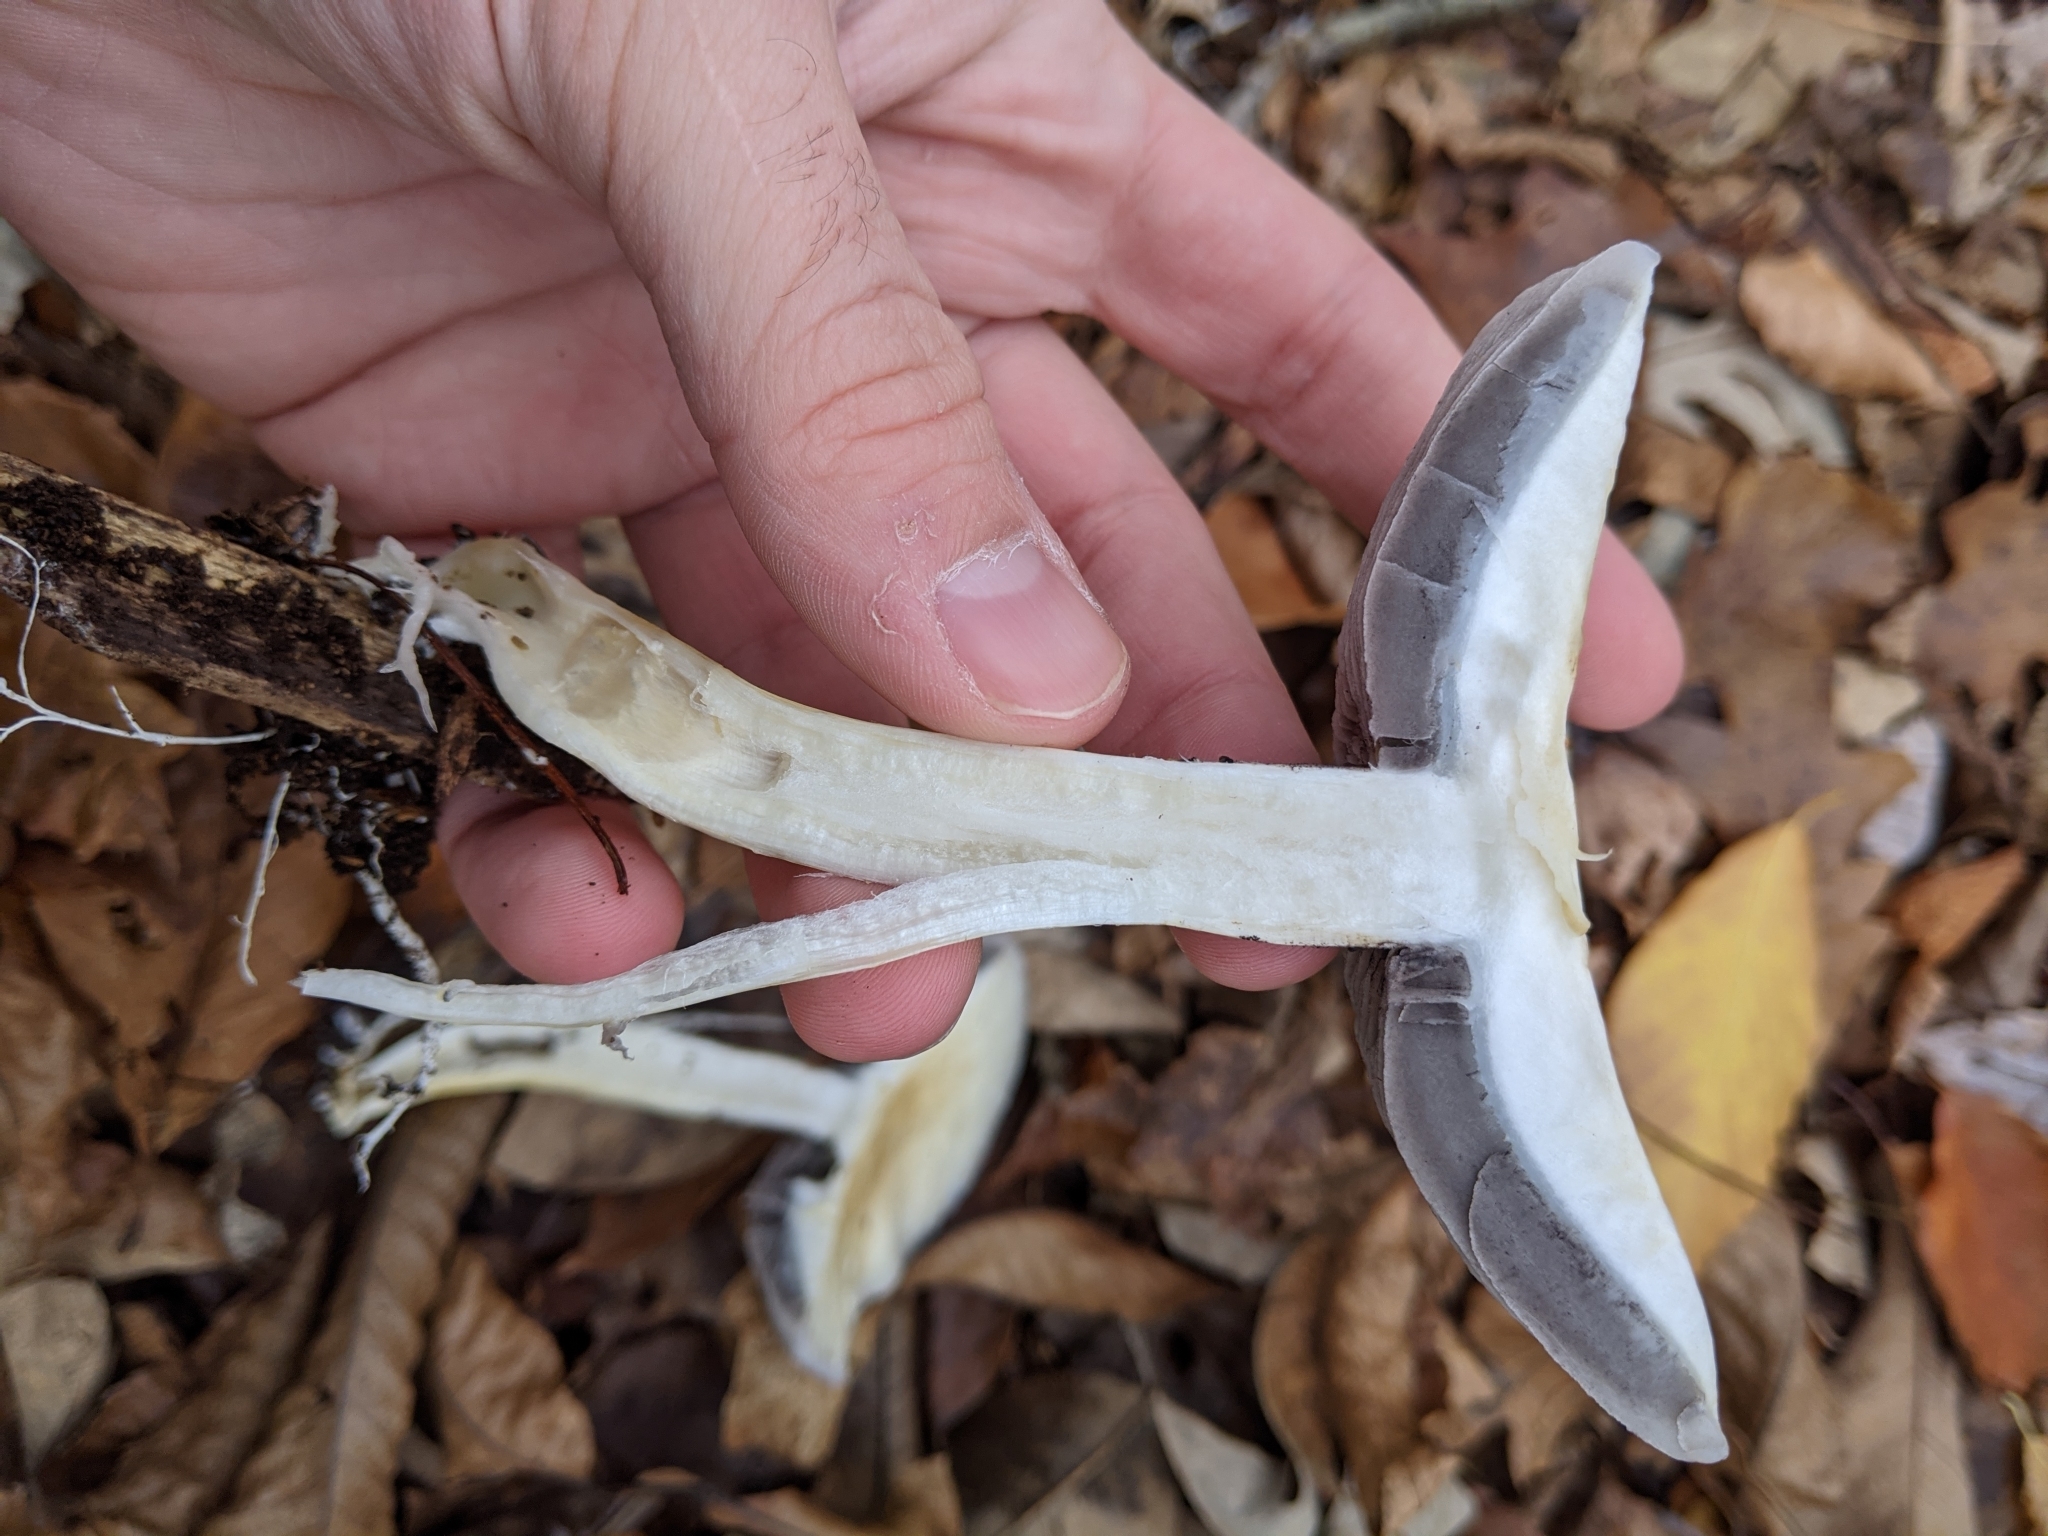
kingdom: Fungi
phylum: Basidiomycota
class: Agaricomycetes
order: Agaricales
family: Strophariaceae
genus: Stropharia
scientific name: Stropharia rugosoannulata
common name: Wine roundhead
